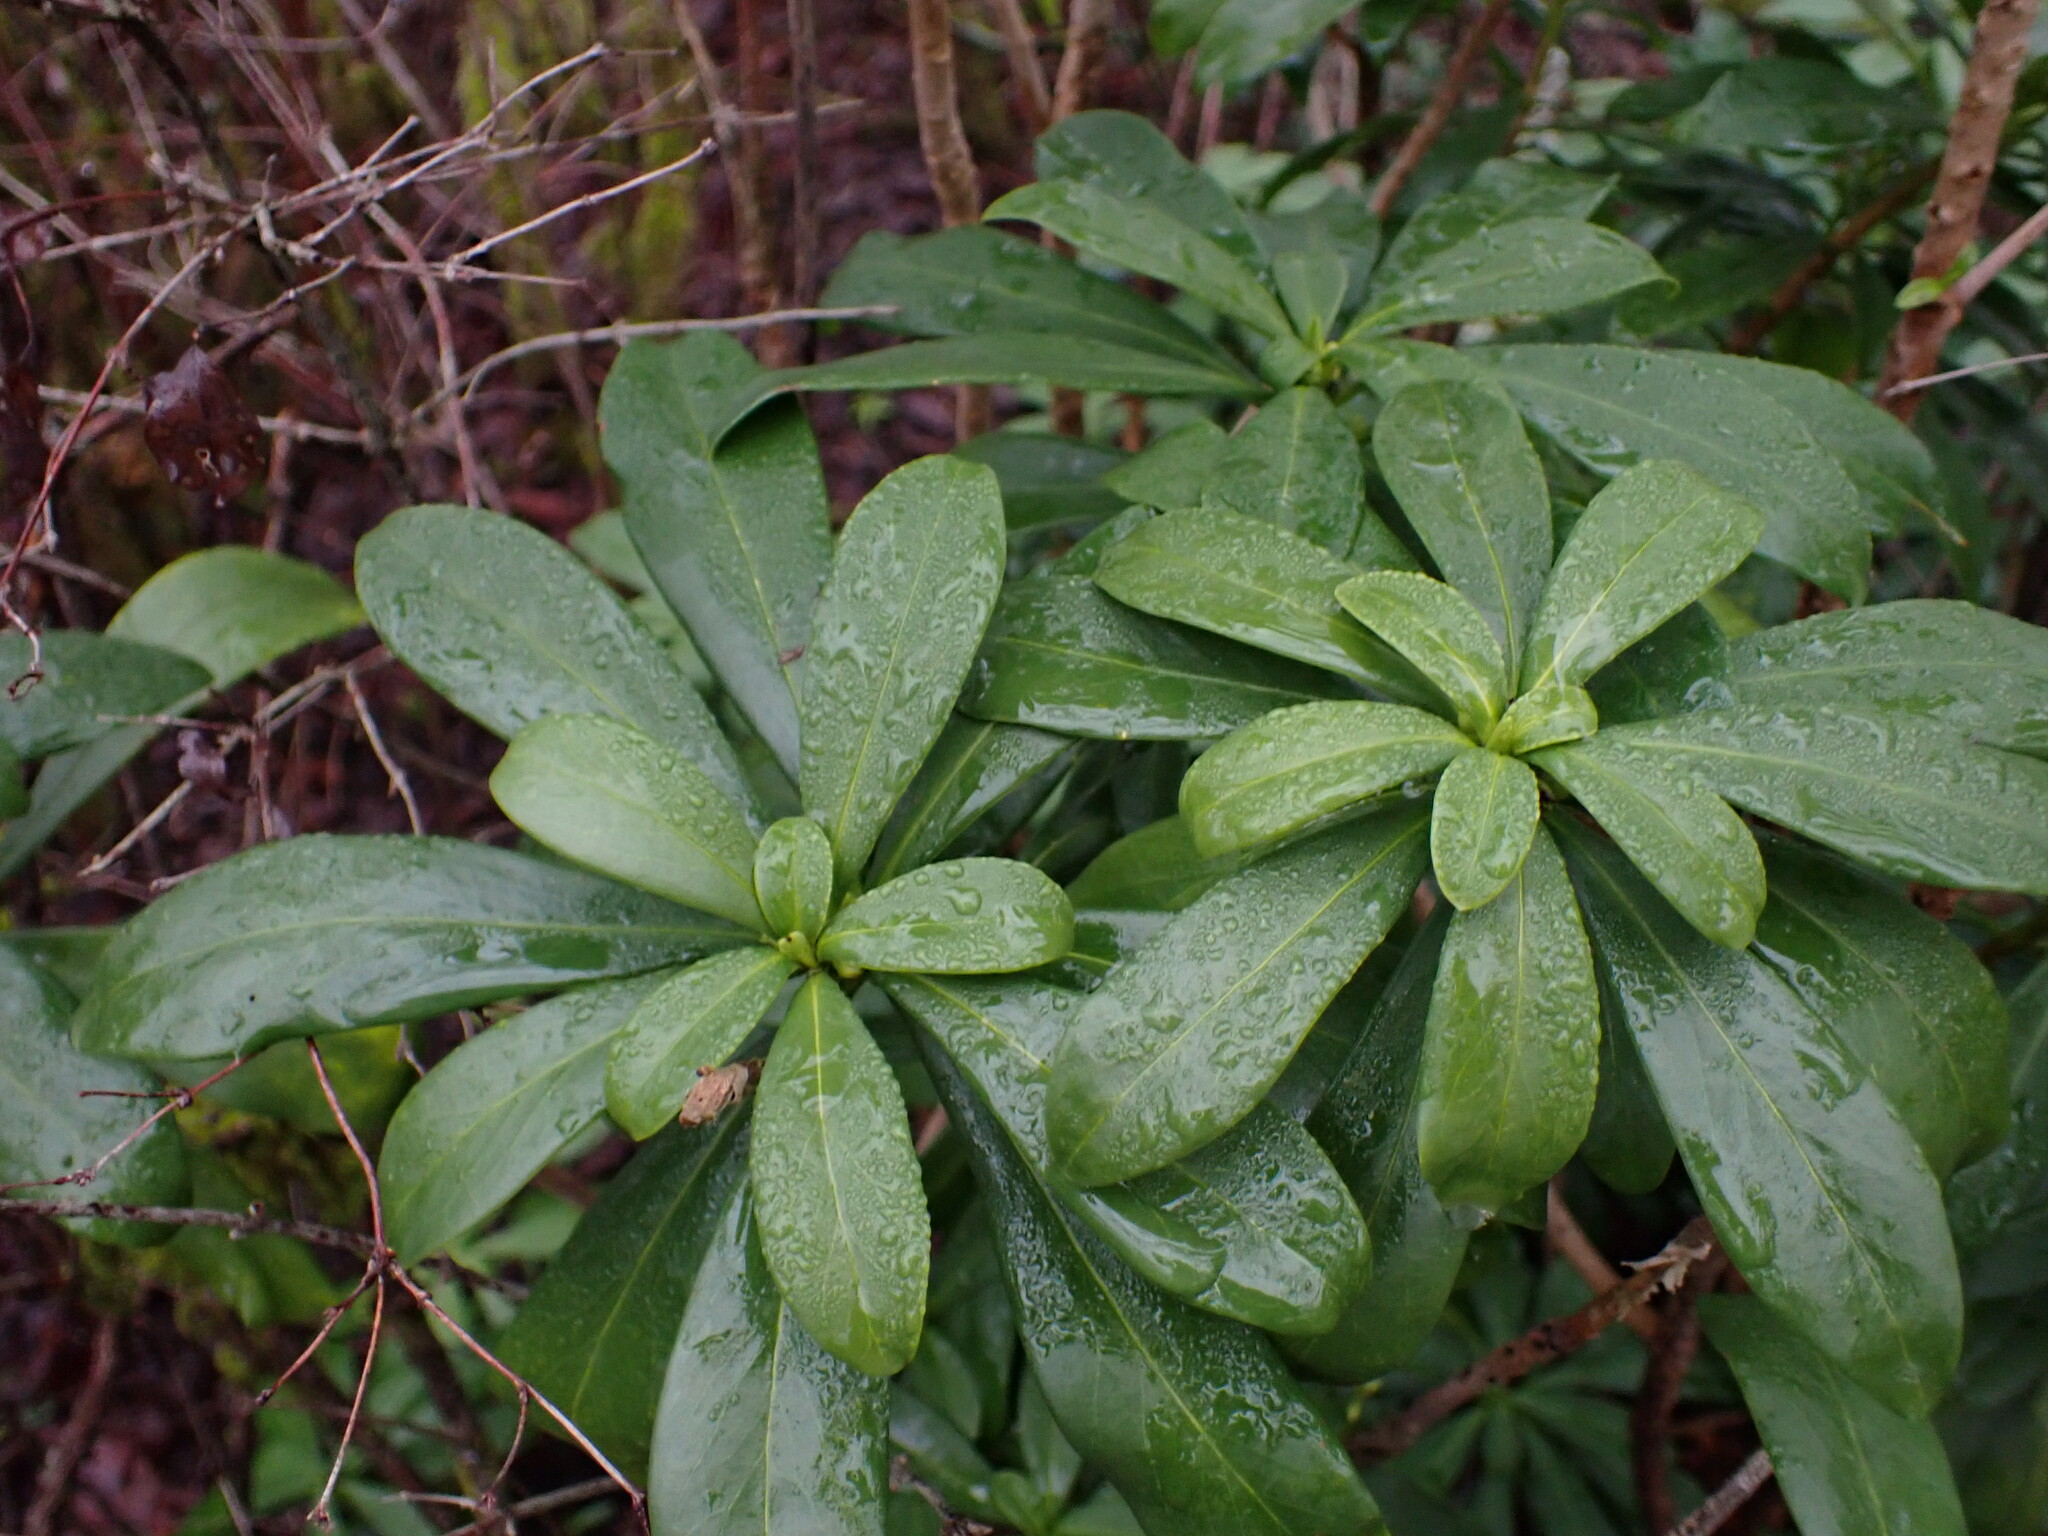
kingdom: Plantae
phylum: Tracheophyta
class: Magnoliopsida
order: Malvales
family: Thymelaeaceae
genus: Daphne
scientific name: Daphne laureola
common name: Spurge-laurel
